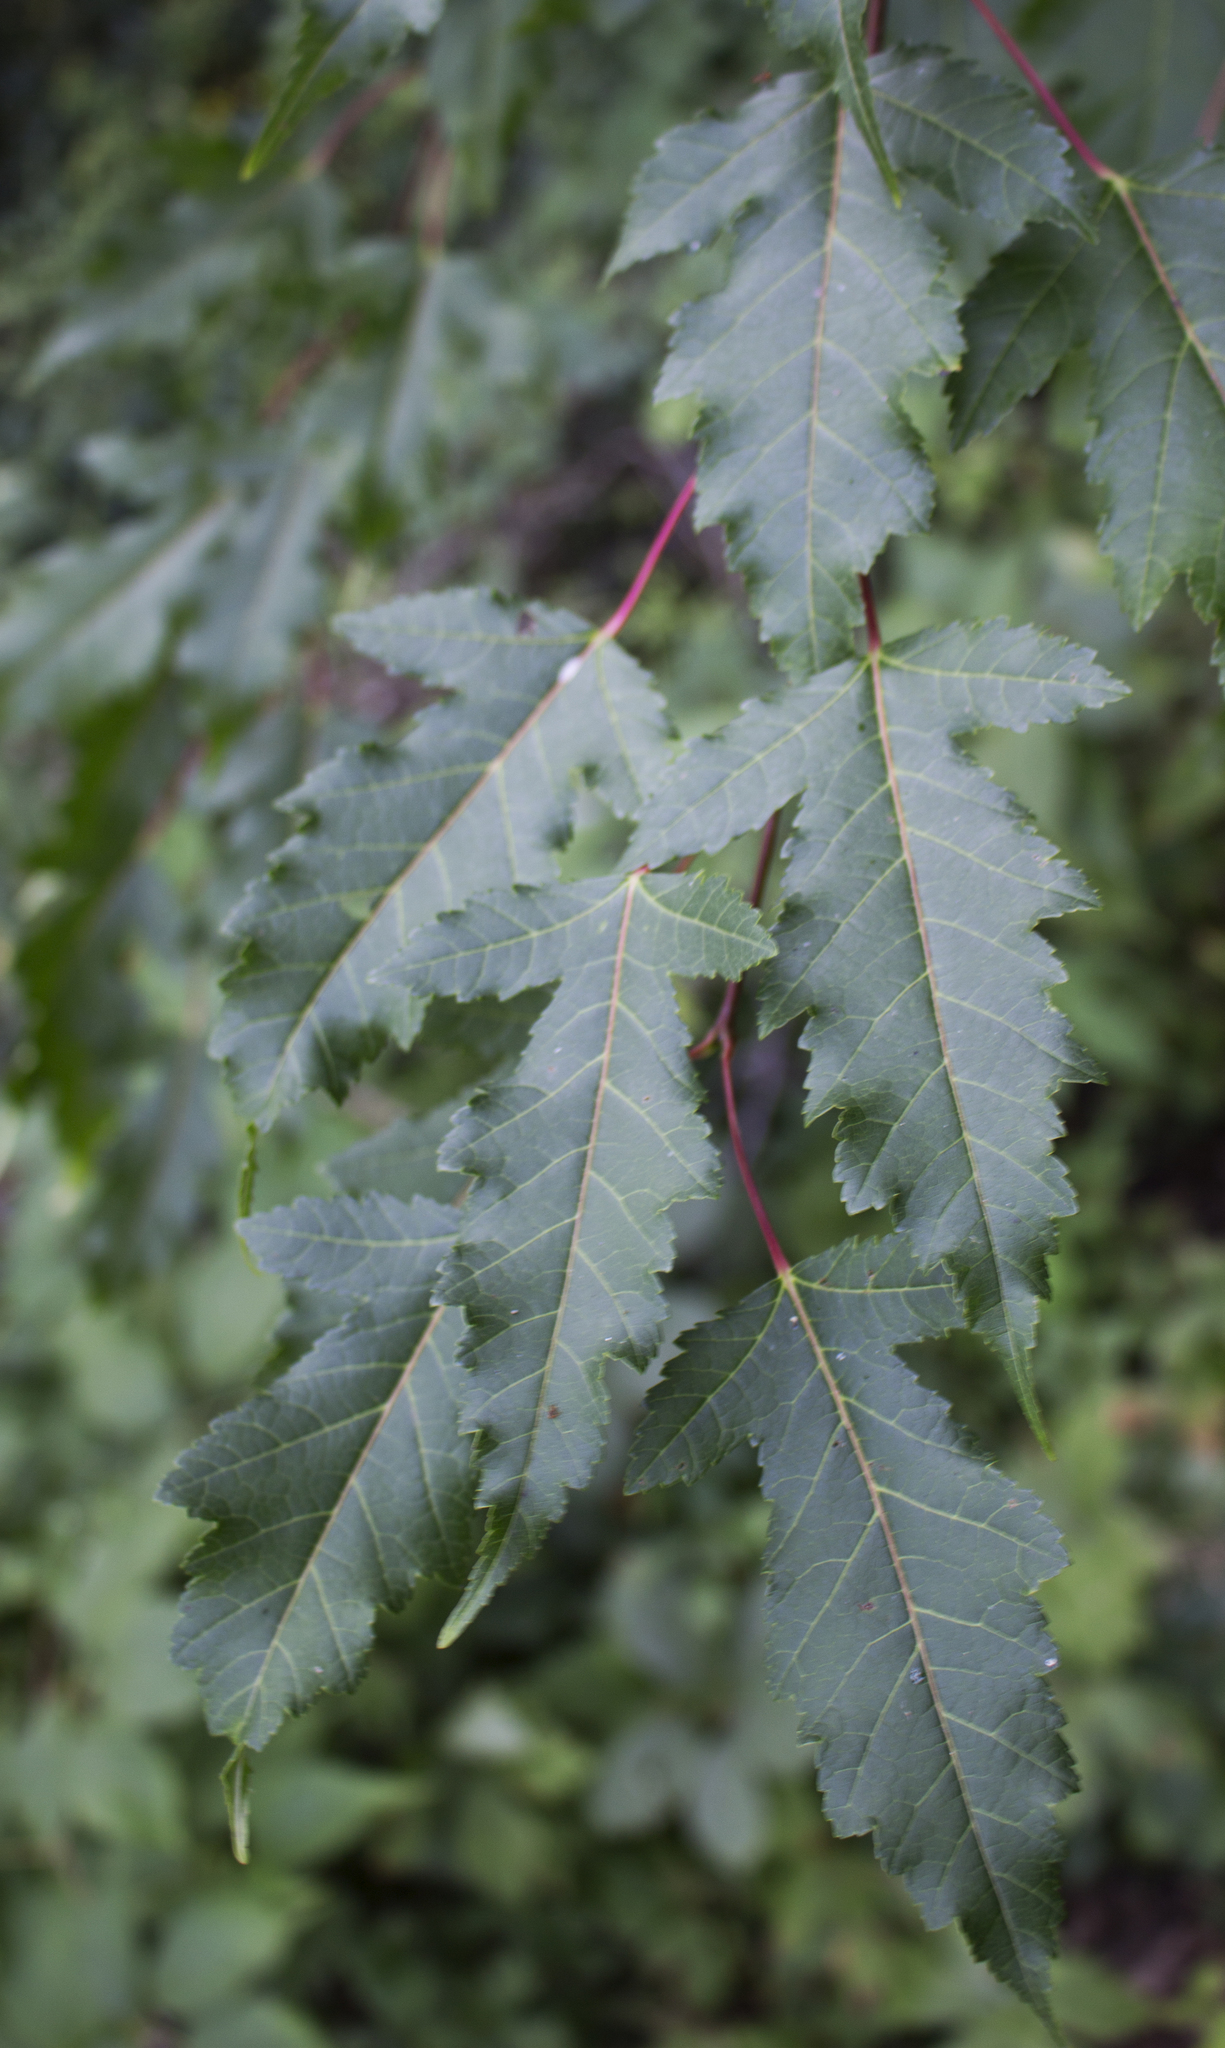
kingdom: Plantae
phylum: Tracheophyta
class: Magnoliopsida
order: Sapindales
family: Sapindaceae
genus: Acer
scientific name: Acer tataricum
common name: Tartar maple
